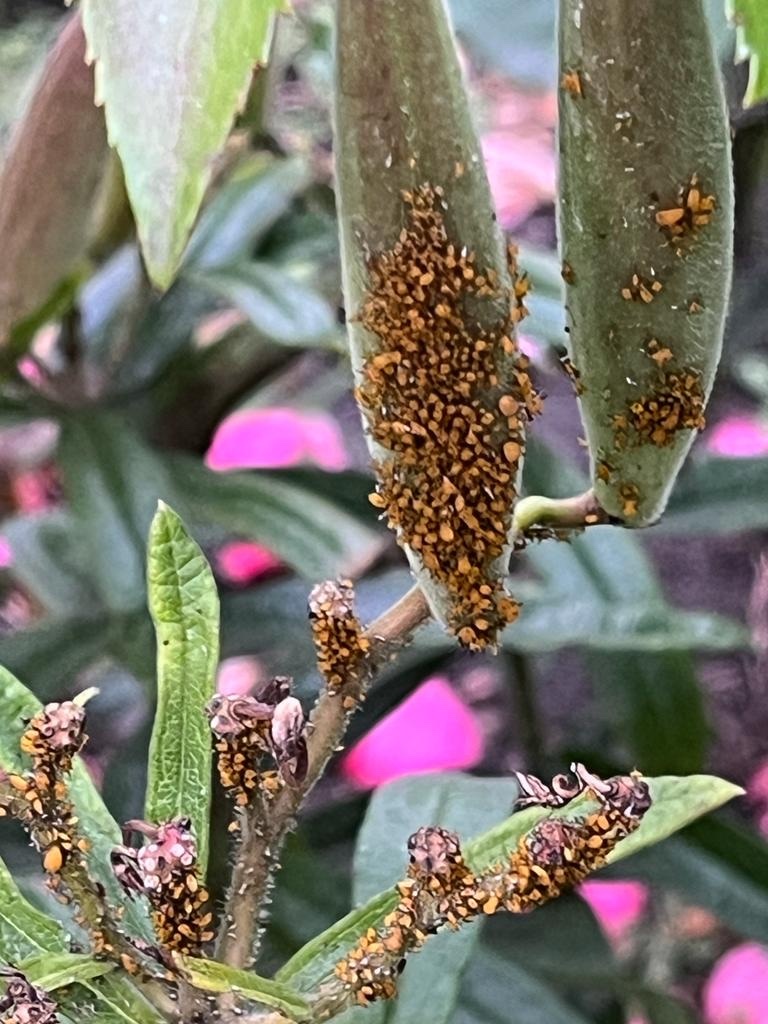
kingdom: Animalia
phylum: Arthropoda
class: Insecta
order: Hemiptera
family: Aphididae
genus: Aphis
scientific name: Aphis nerii
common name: Oleander aphid
